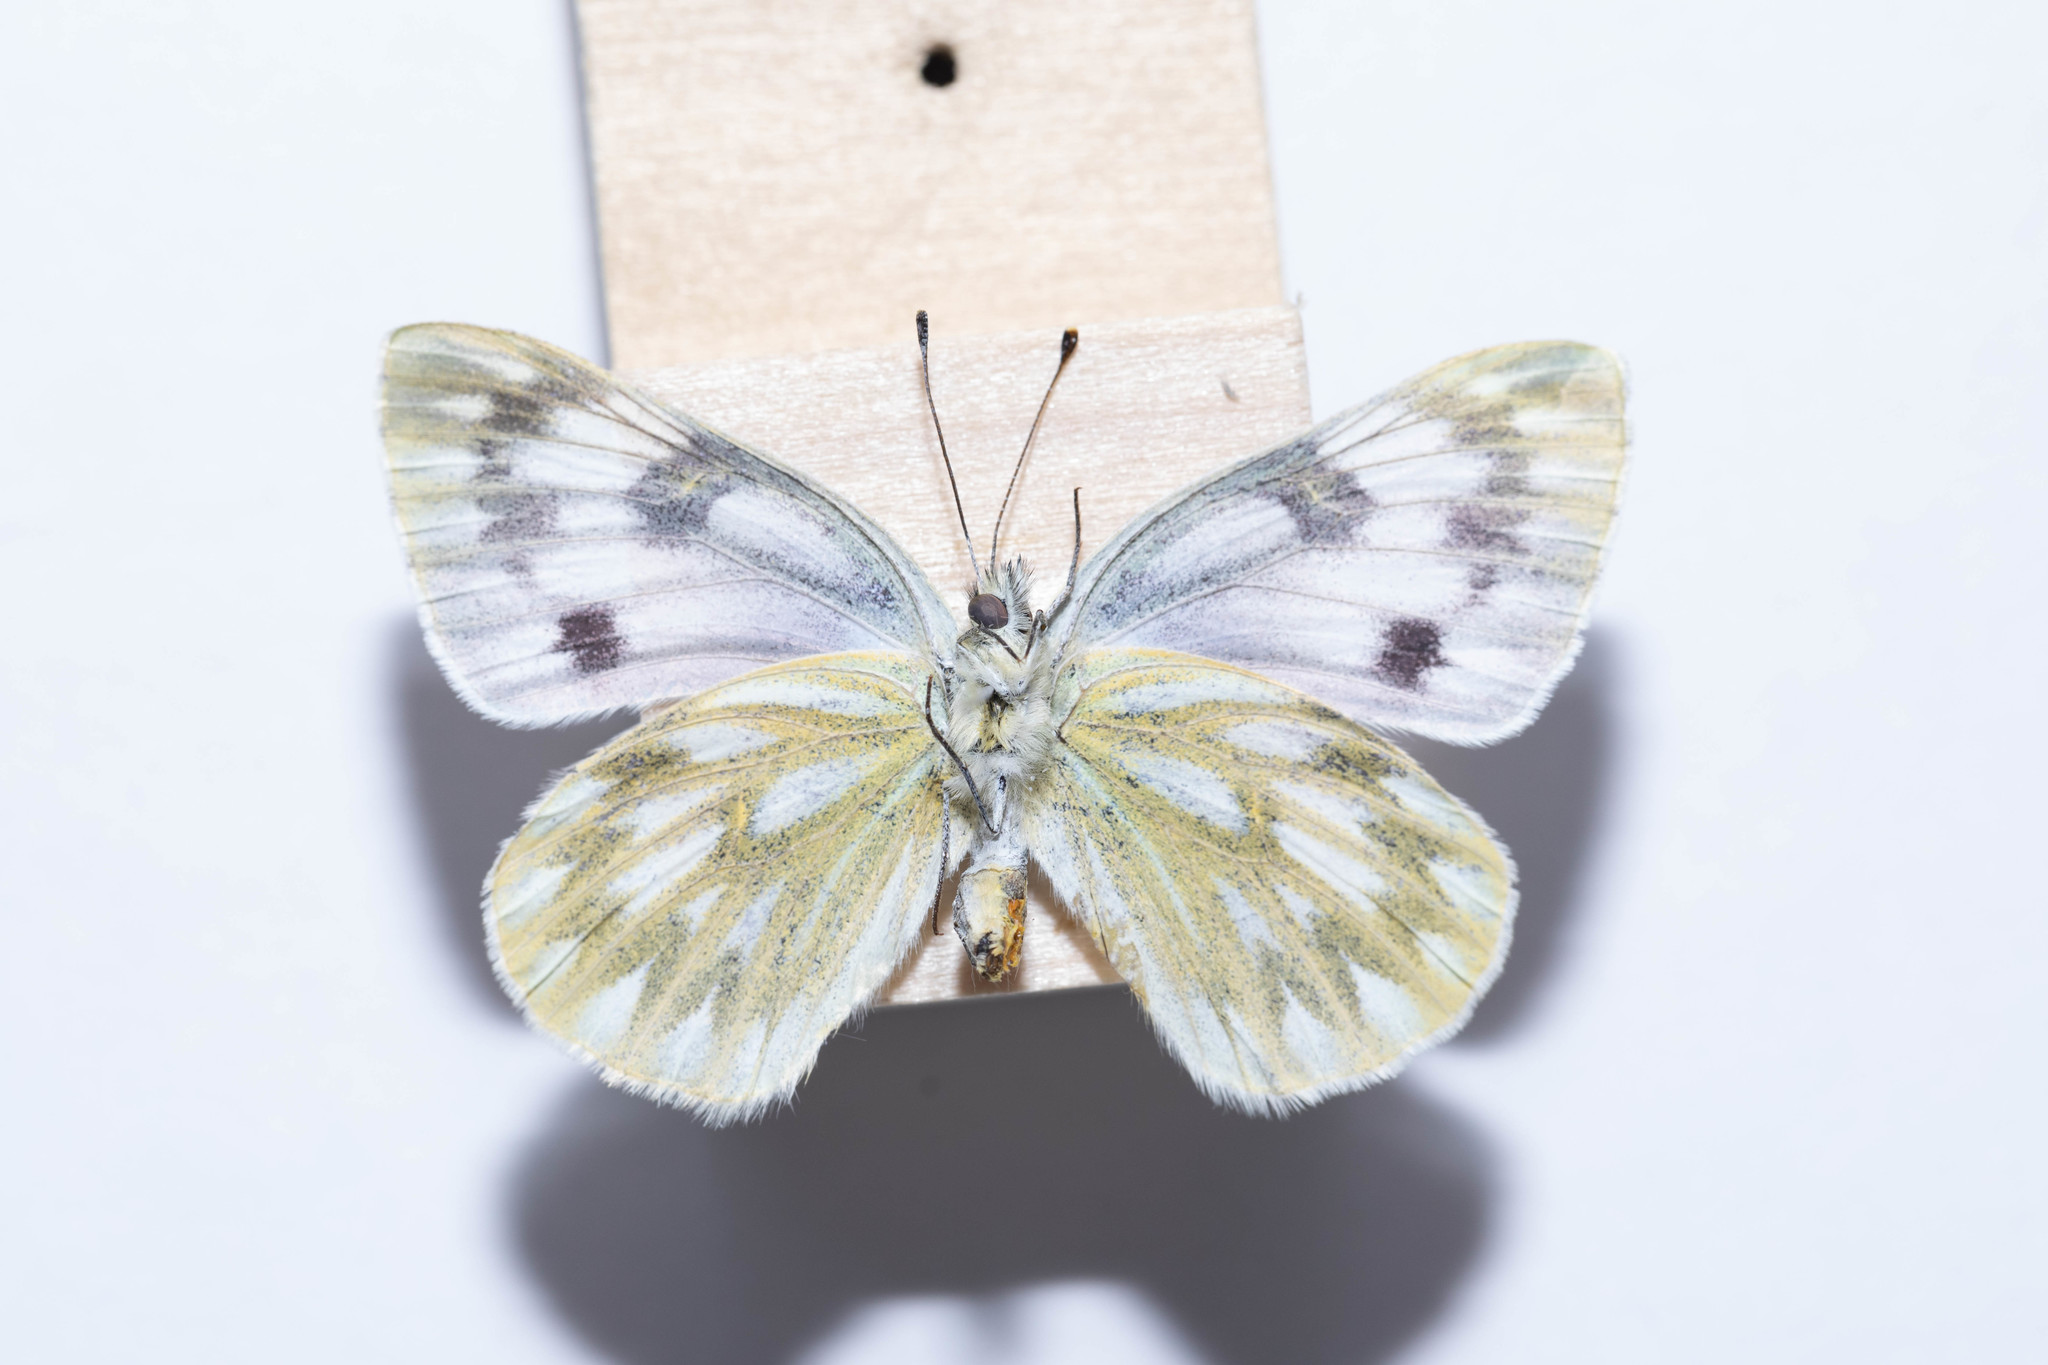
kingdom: Animalia
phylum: Arthropoda
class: Insecta
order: Lepidoptera
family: Pieridae
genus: Pontia
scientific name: Pontia occidentalis
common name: Western white
